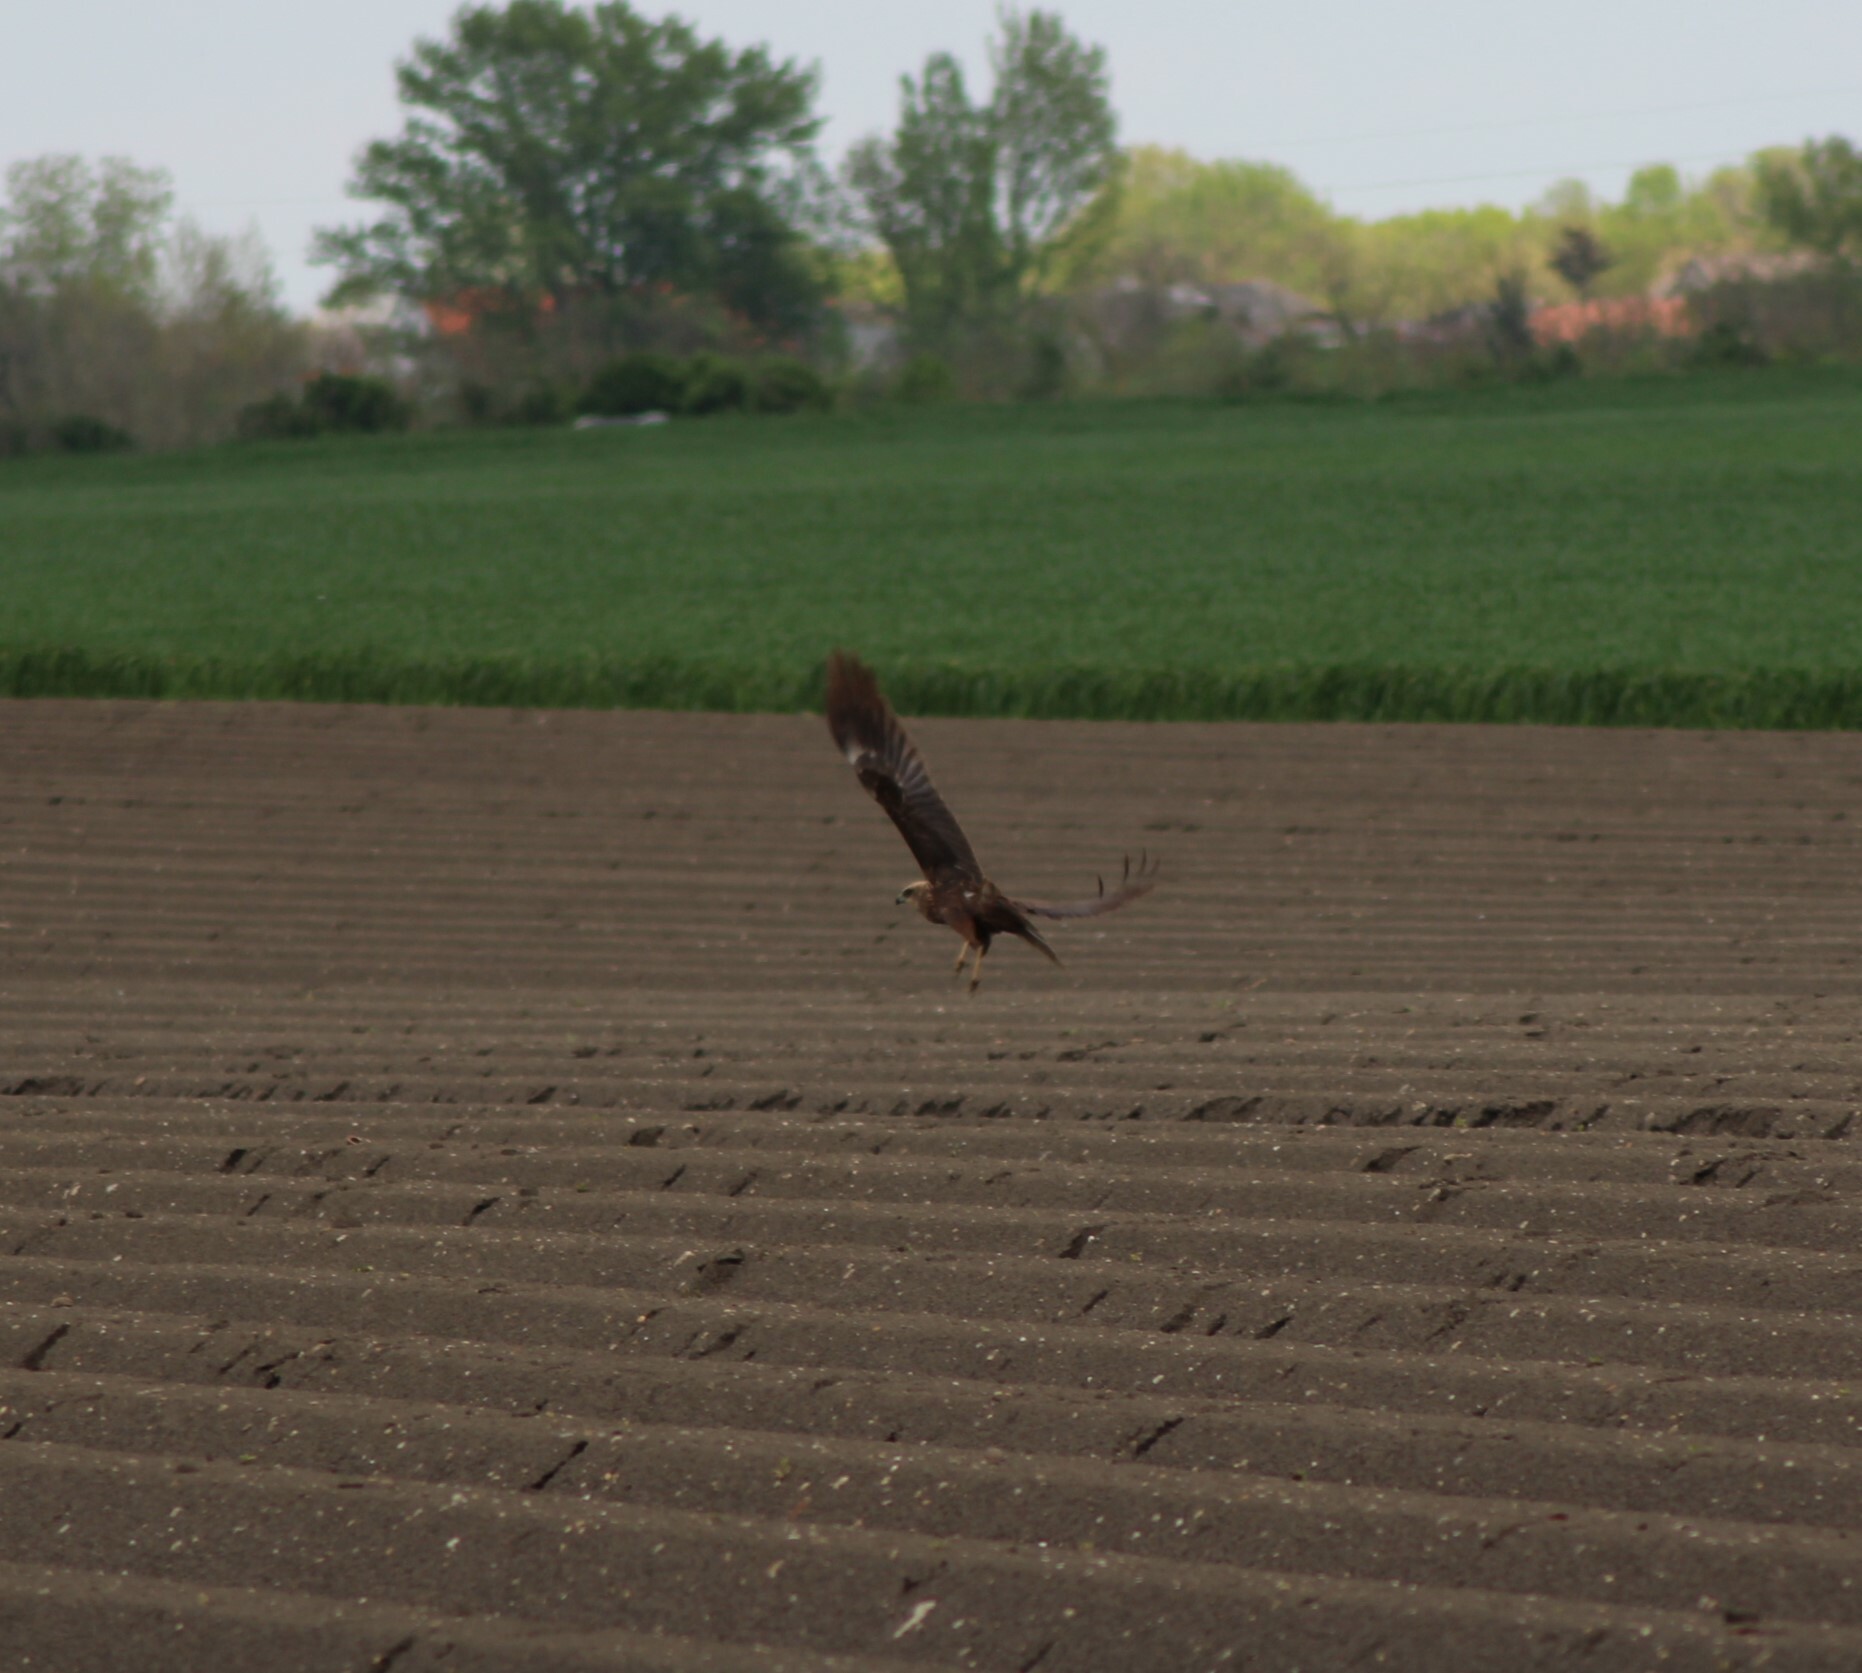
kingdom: Animalia
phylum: Chordata
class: Aves
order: Accipitriformes
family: Accipitridae
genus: Circus
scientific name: Circus aeruginosus
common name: Western marsh harrier
